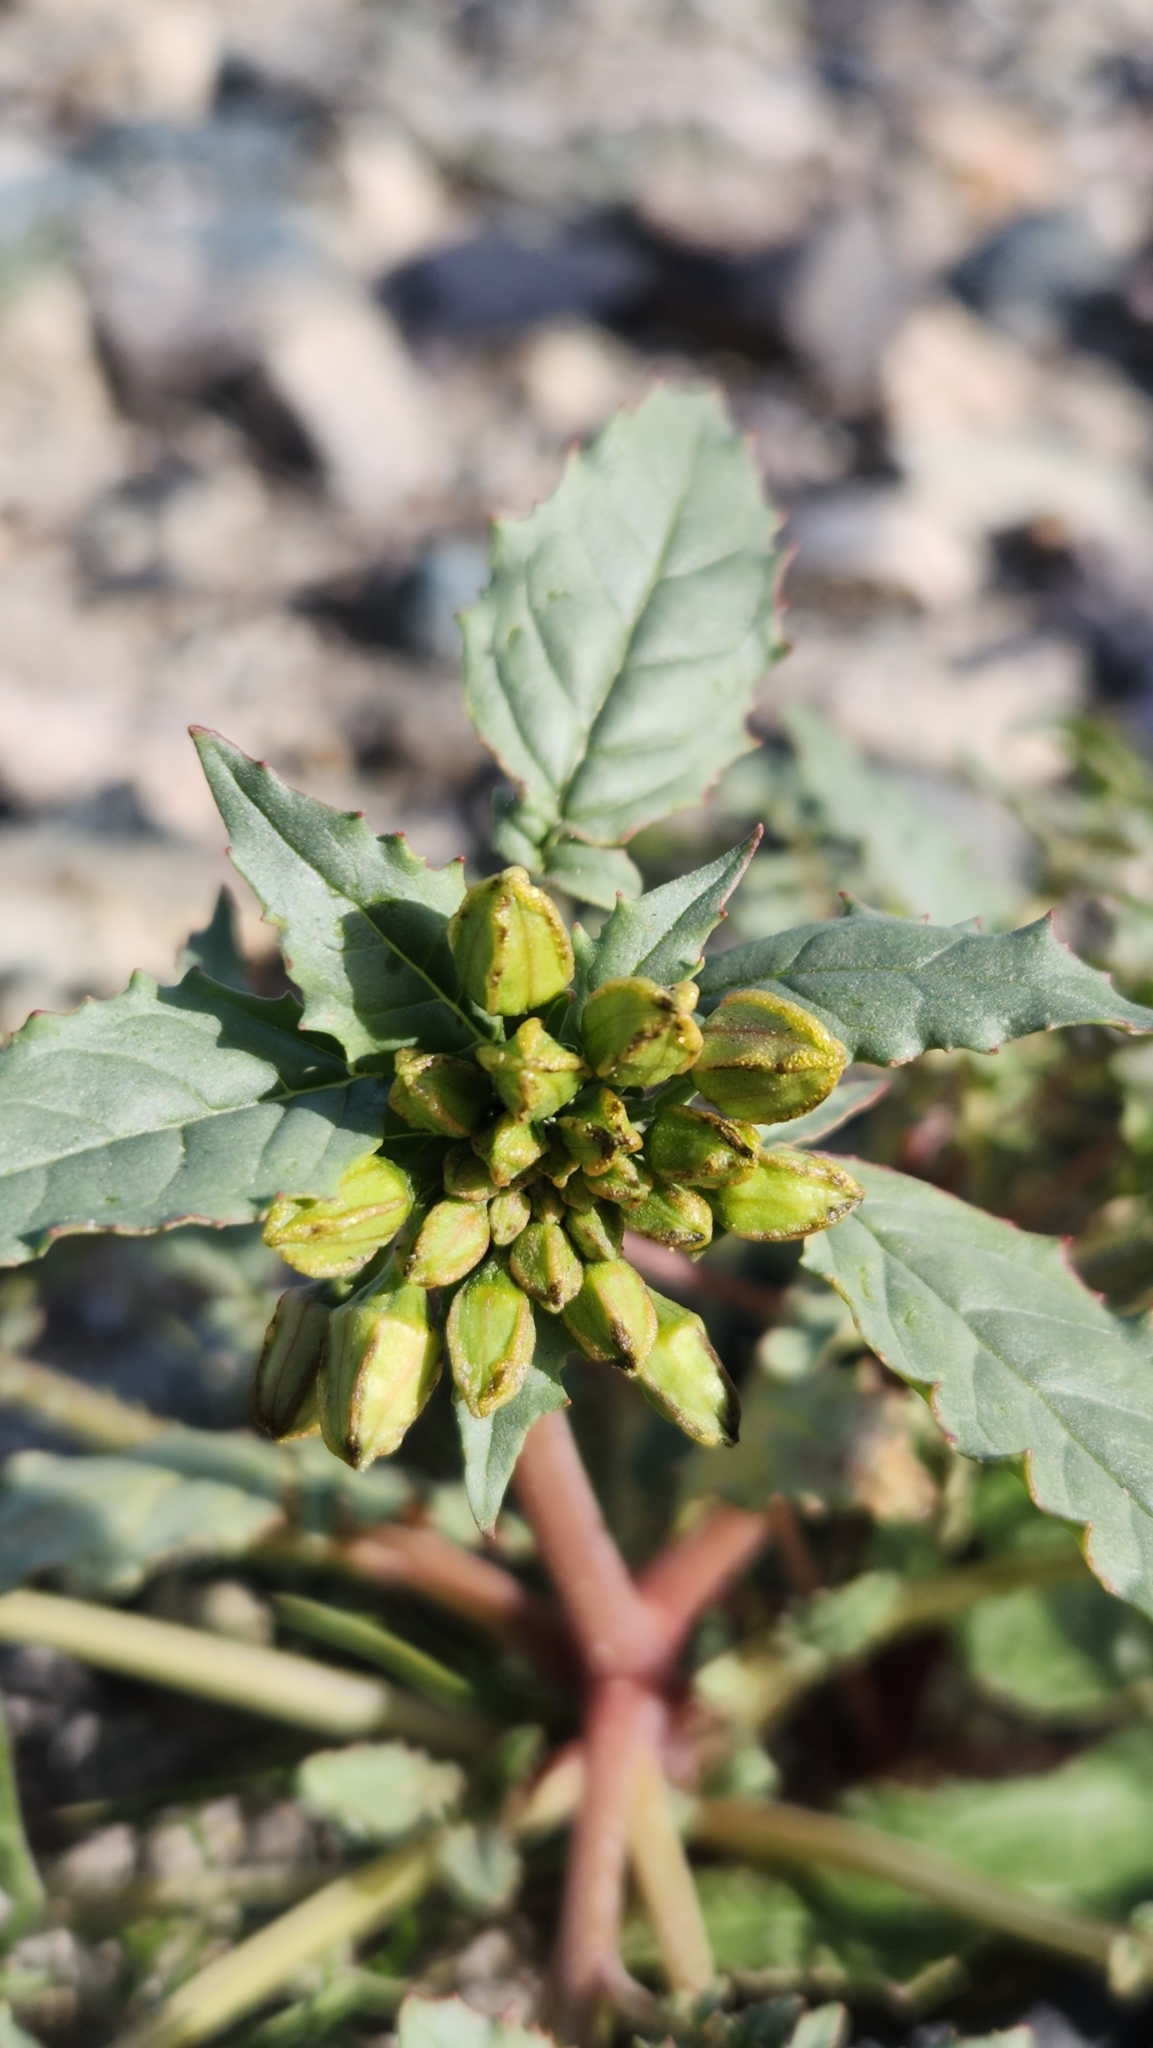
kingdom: Plantae
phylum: Tracheophyta
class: Magnoliopsida
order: Myrtales
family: Onagraceae
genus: Chylismia
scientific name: Chylismia claviformis
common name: Browneyes
